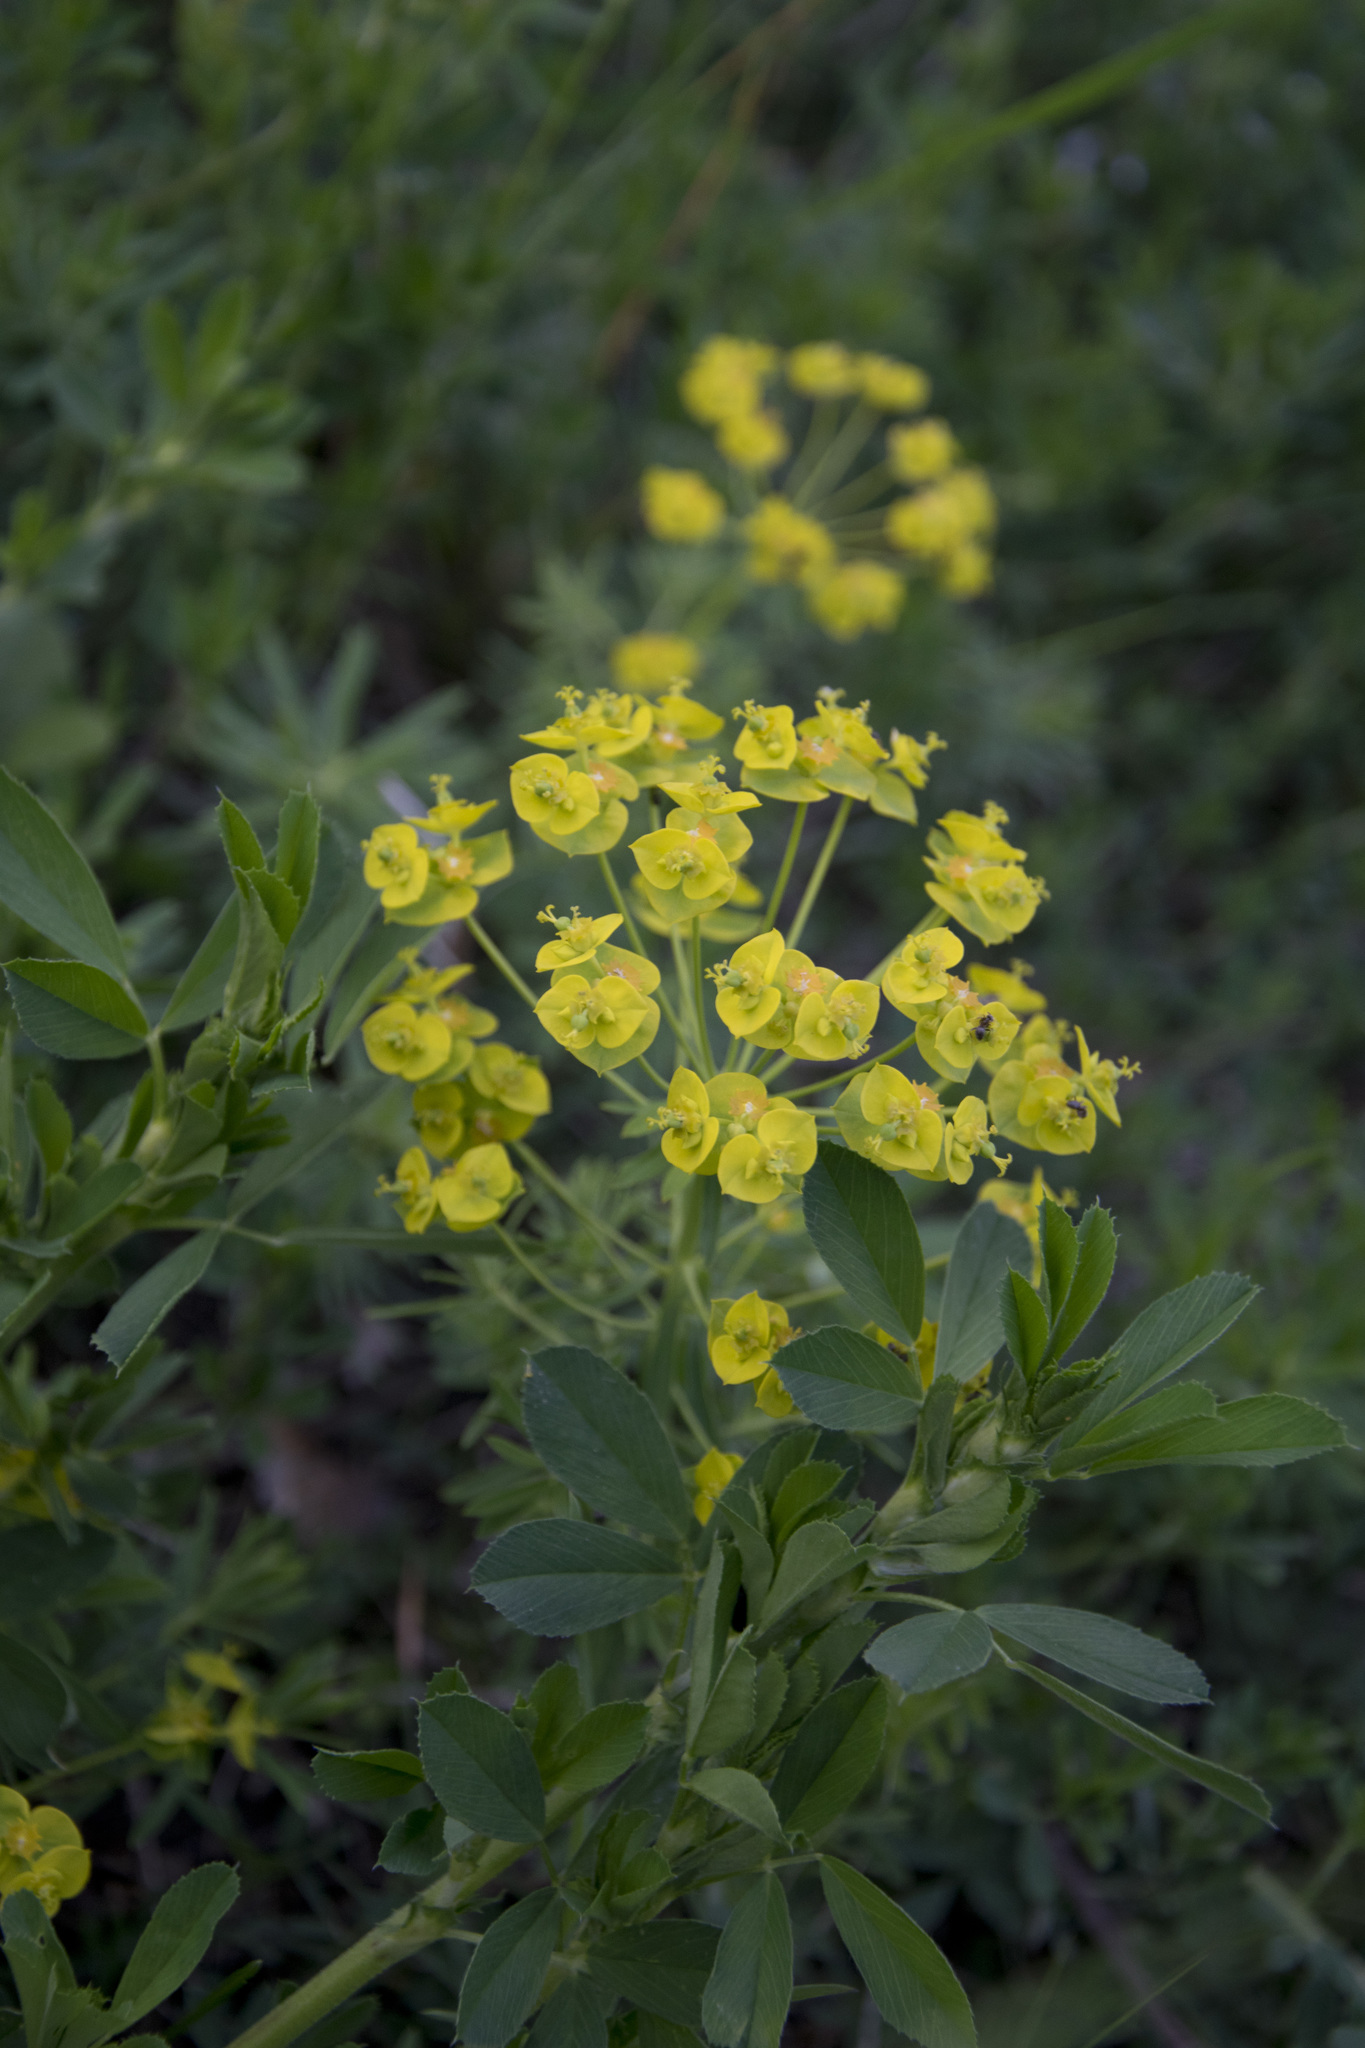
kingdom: Plantae
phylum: Tracheophyta
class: Magnoliopsida
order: Malpighiales
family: Euphorbiaceae
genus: Euphorbia
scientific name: Euphorbia cyparissias
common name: Cypress spurge
